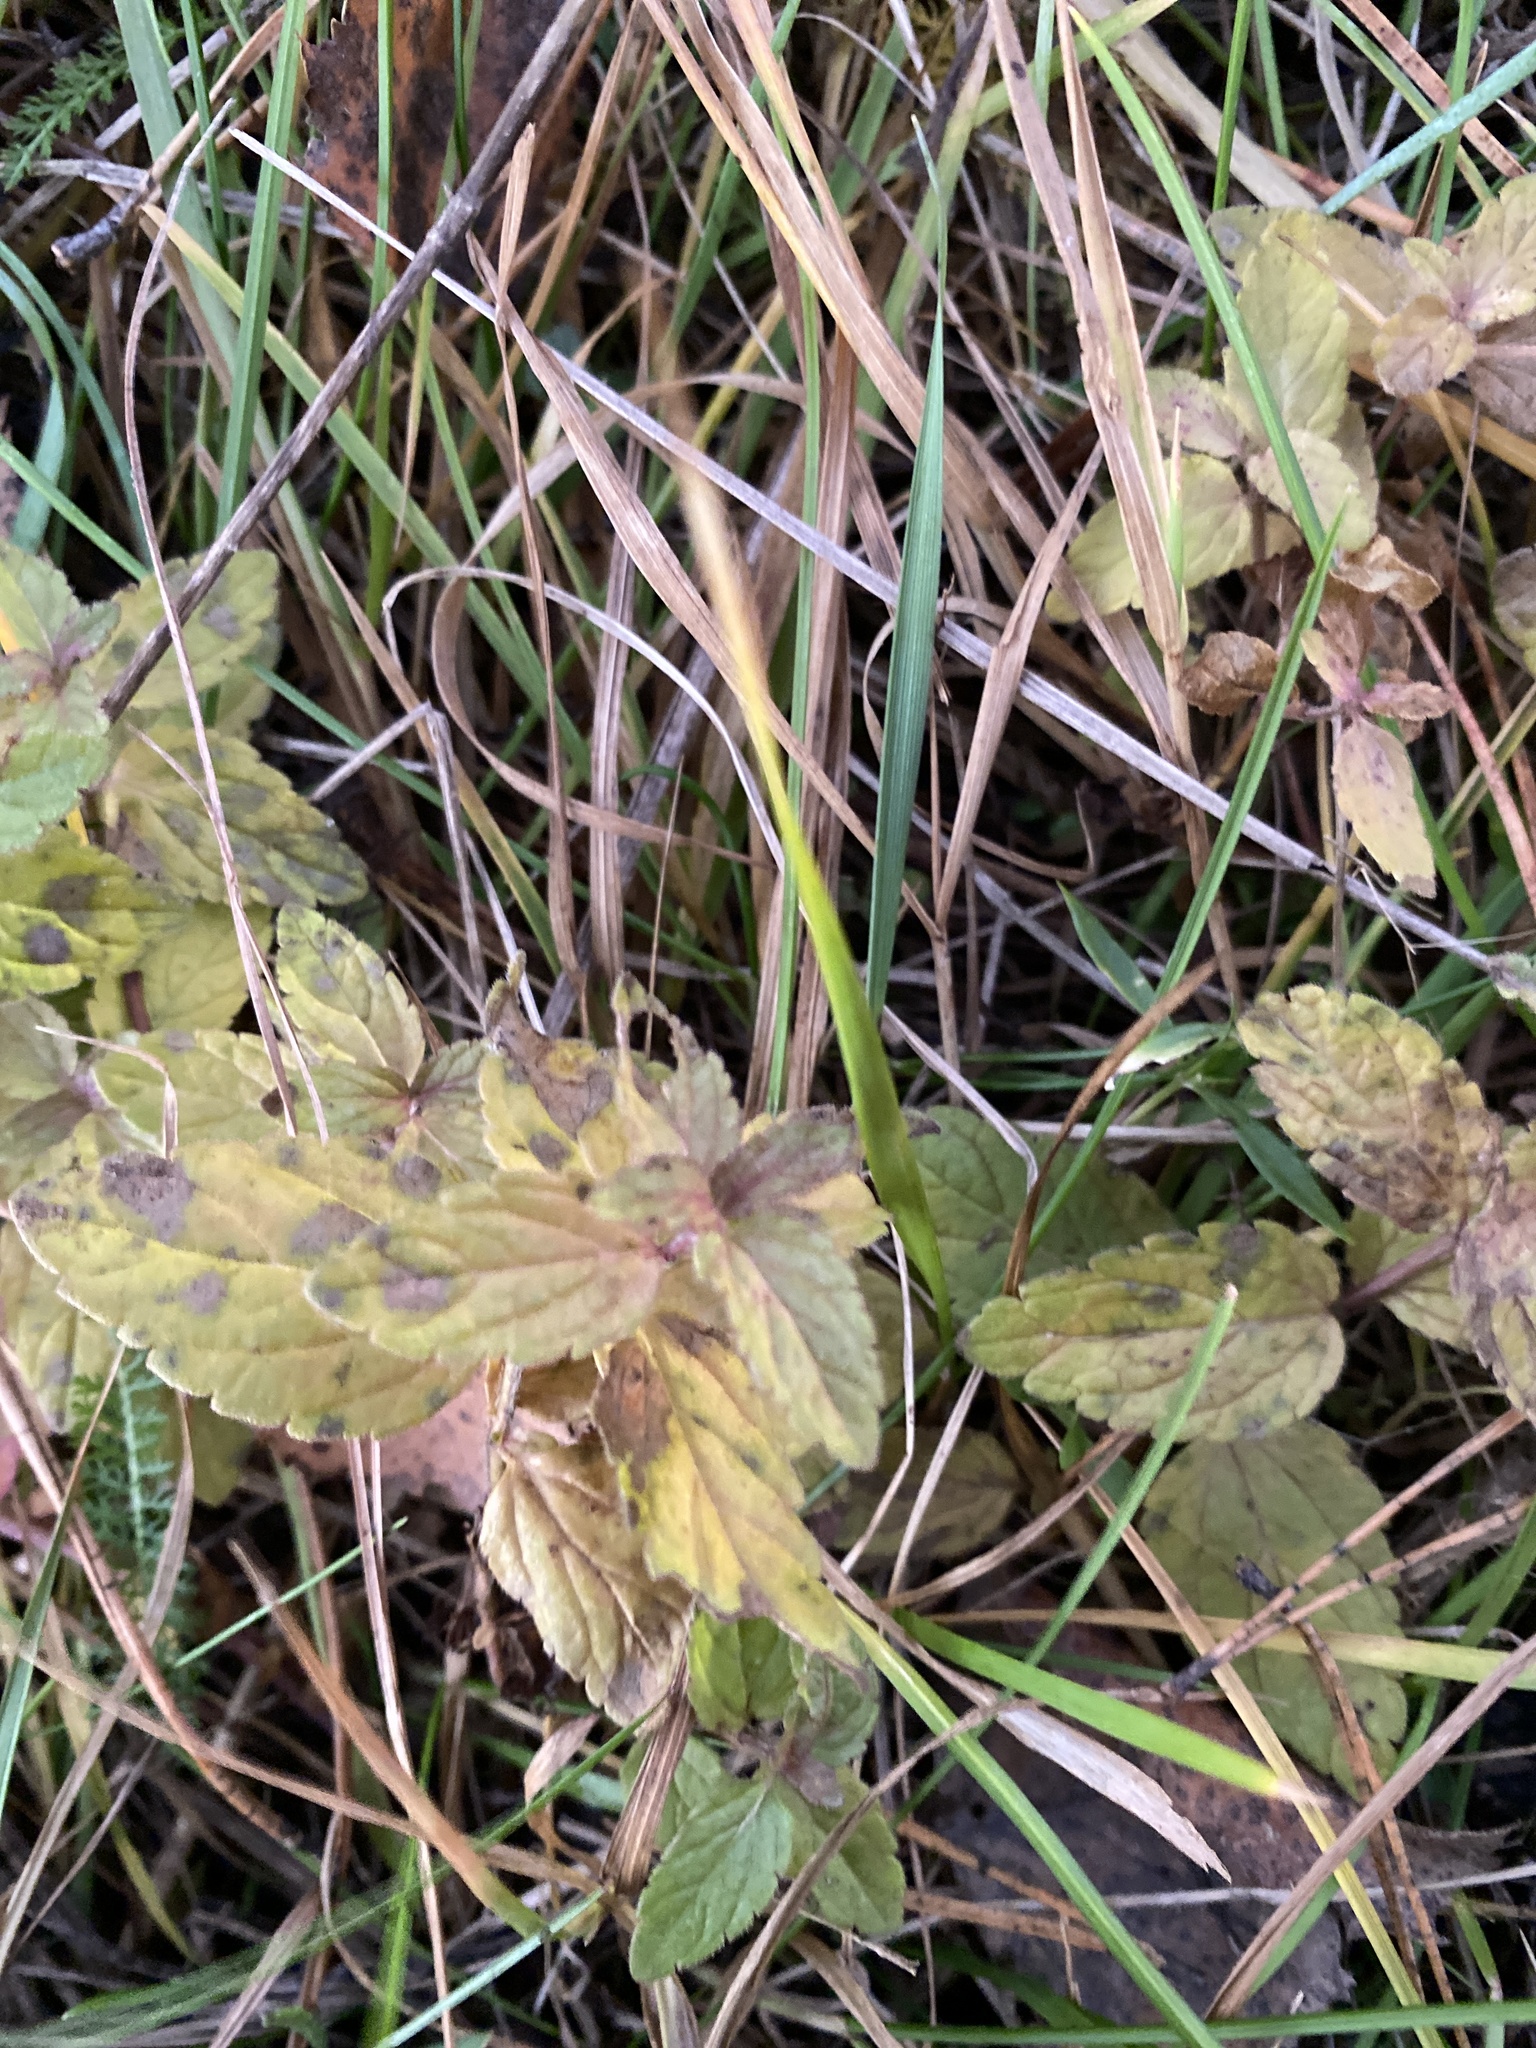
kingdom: Plantae
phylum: Tracheophyta
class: Magnoliopsida
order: Lamiales
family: Plantaginaceae
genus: Veronica
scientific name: Veronica chamaedrys
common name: Germander speedwell
